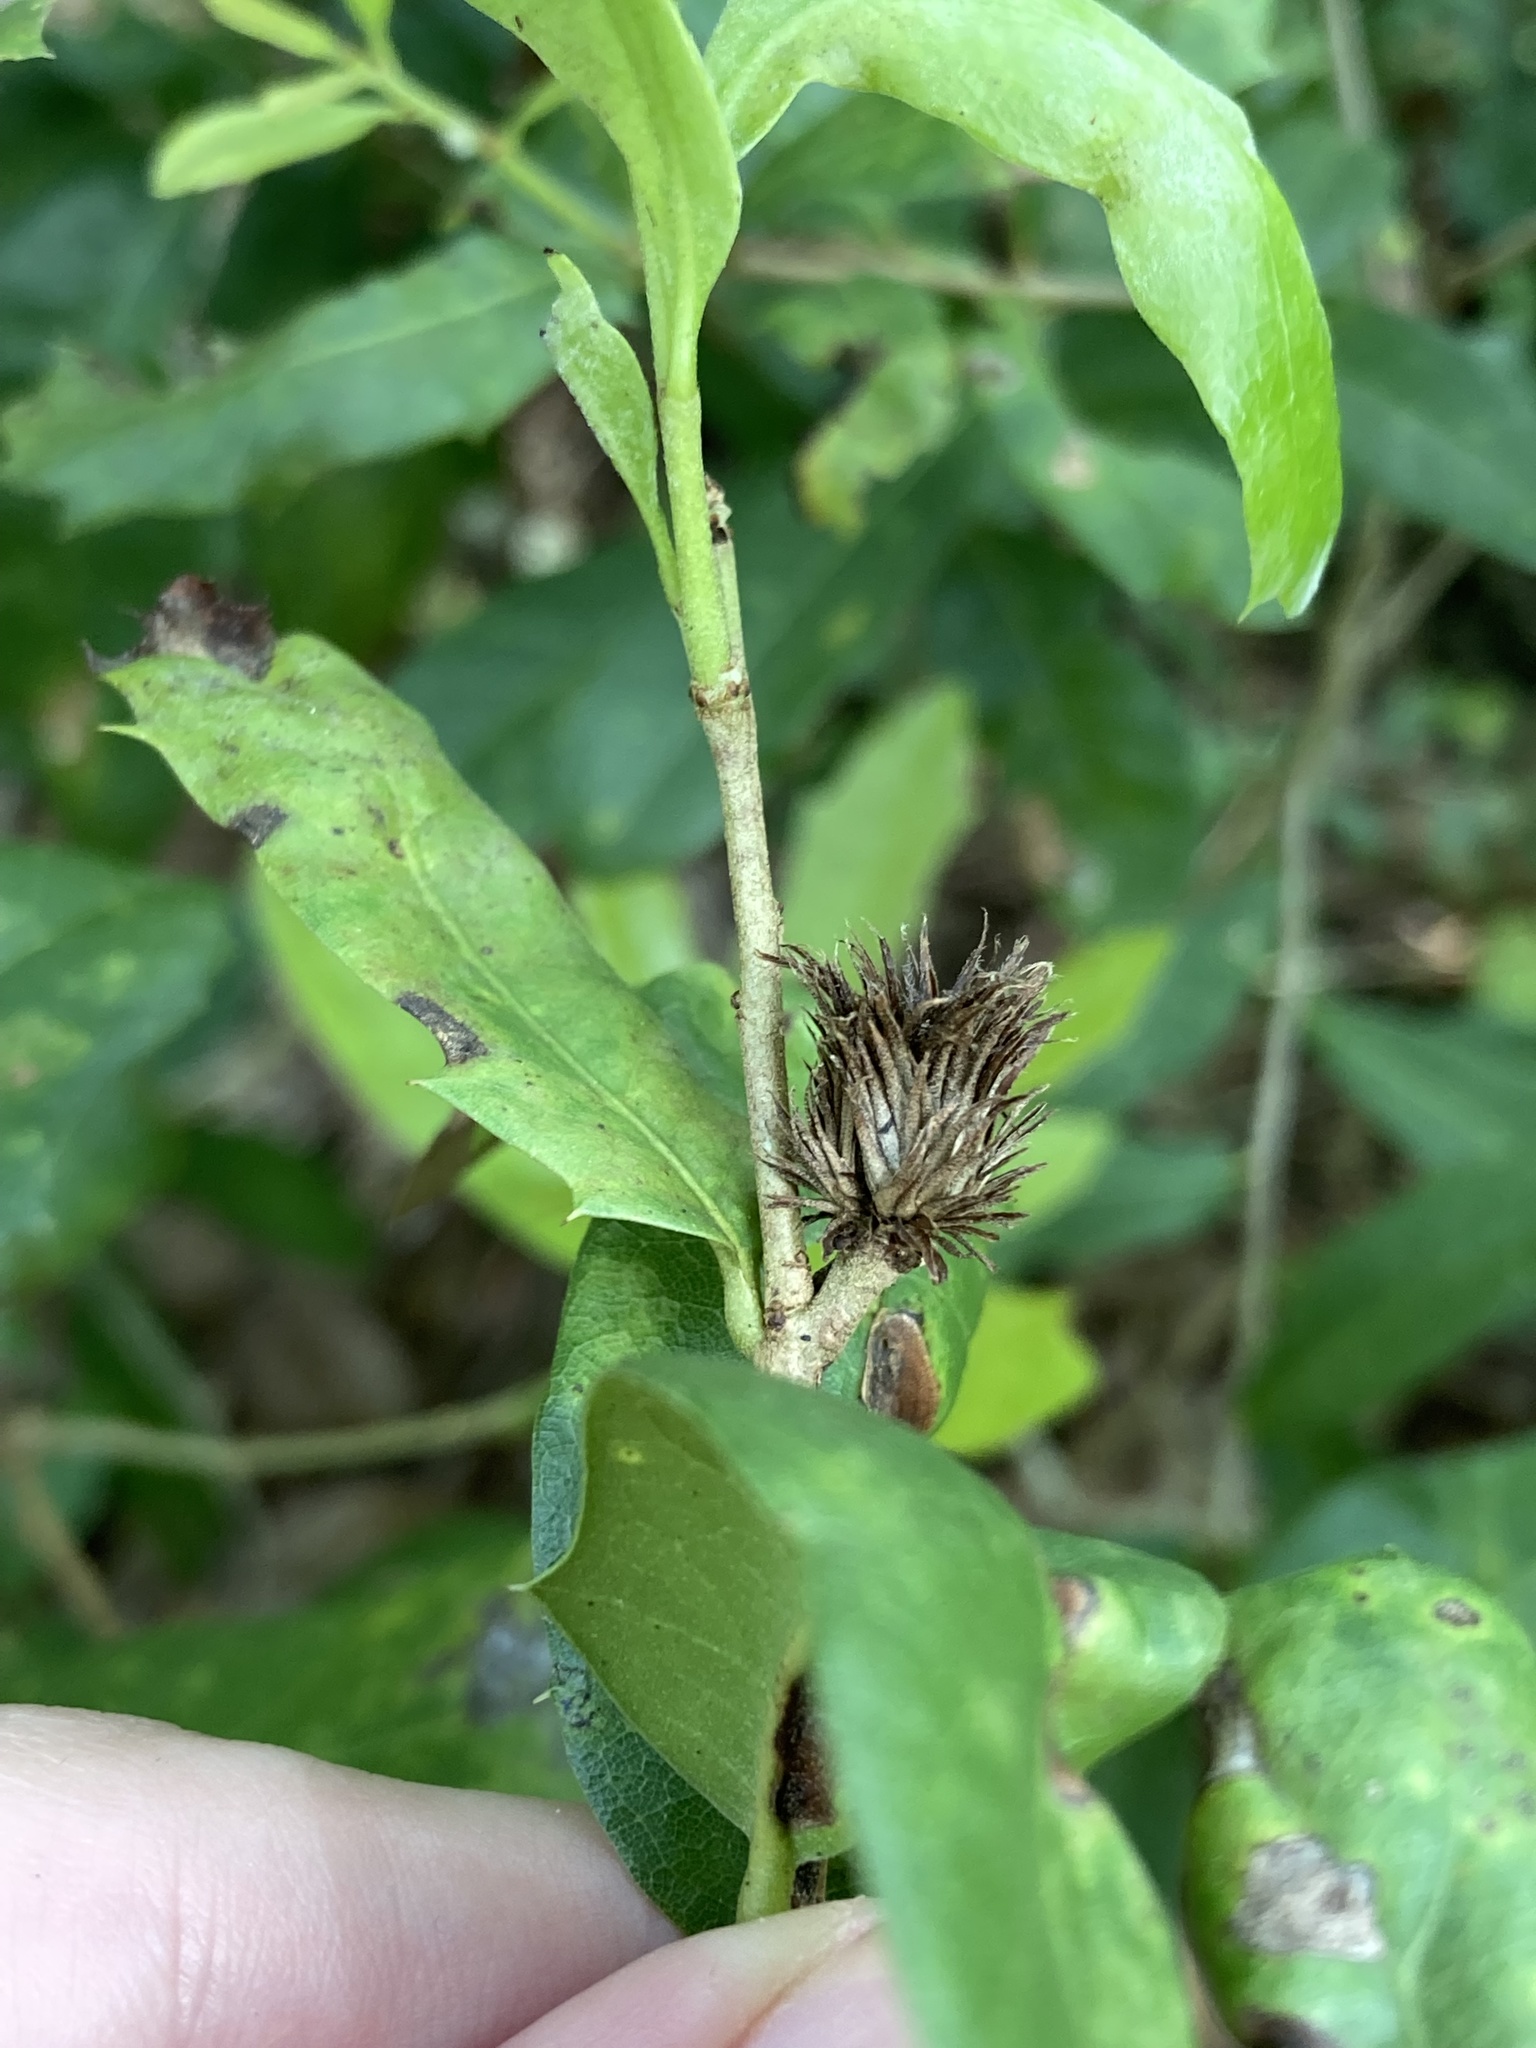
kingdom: Animalia
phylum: Arthropoda
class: Insecta
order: Hymenoptera
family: Cynipidae
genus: Andricus
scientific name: Andricus quercusfoliatus
